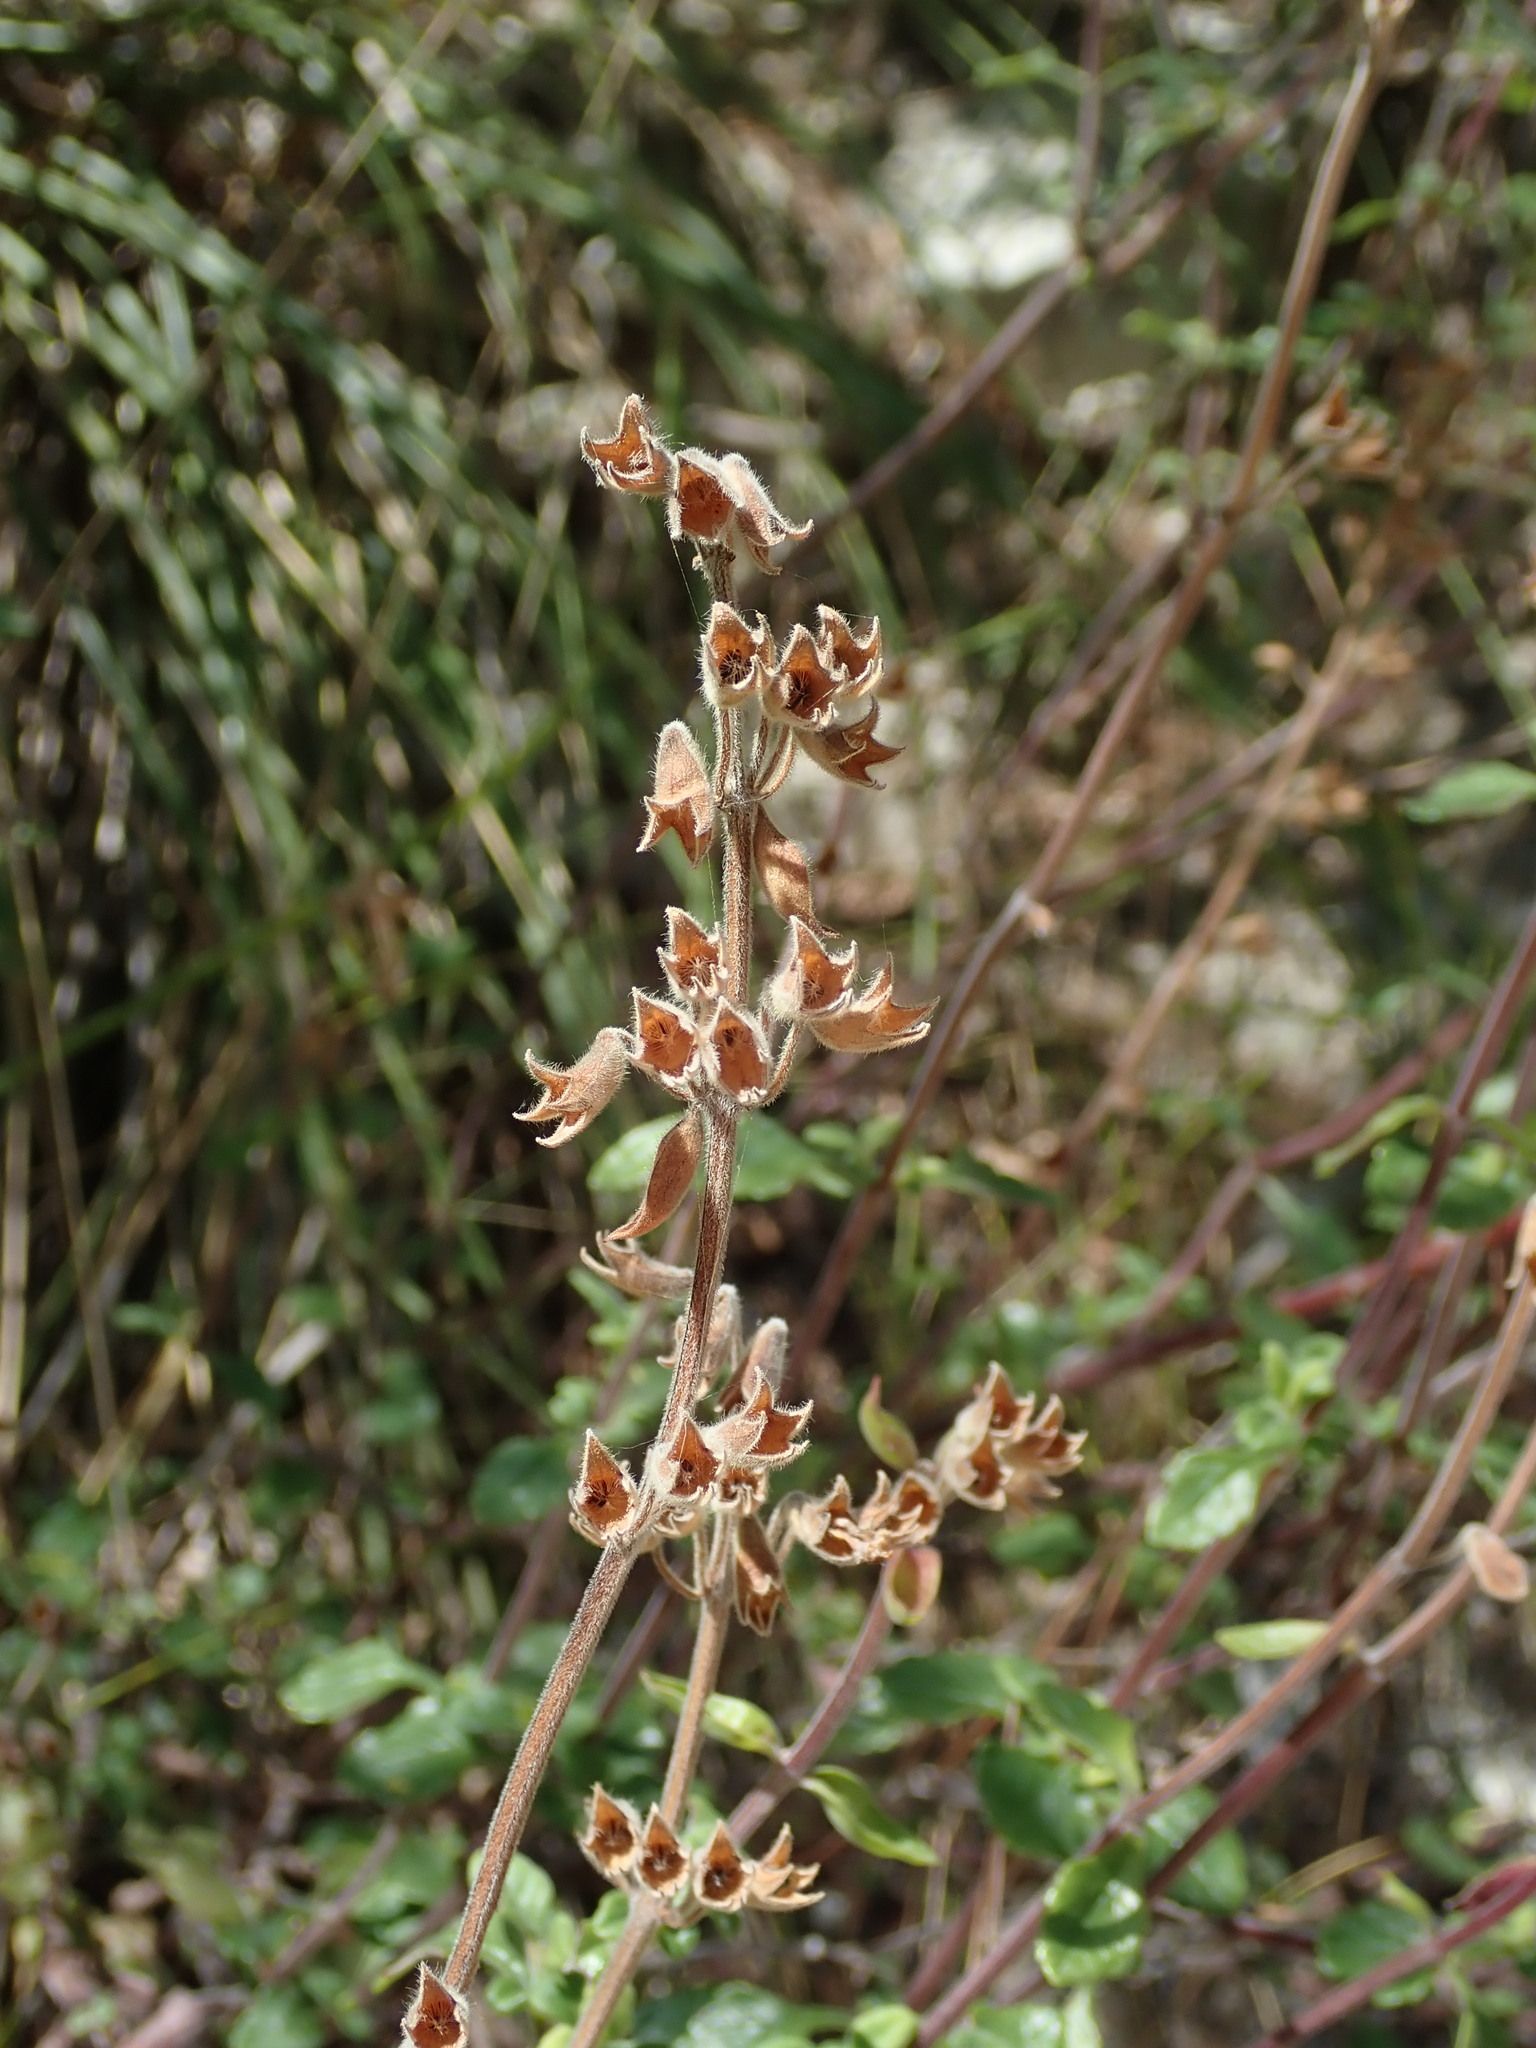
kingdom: Plantae
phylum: Tracheophyta
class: Magnoliopsida
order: Lamiales
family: Lamiaceae
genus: Teucrium
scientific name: Teucrium flavum
